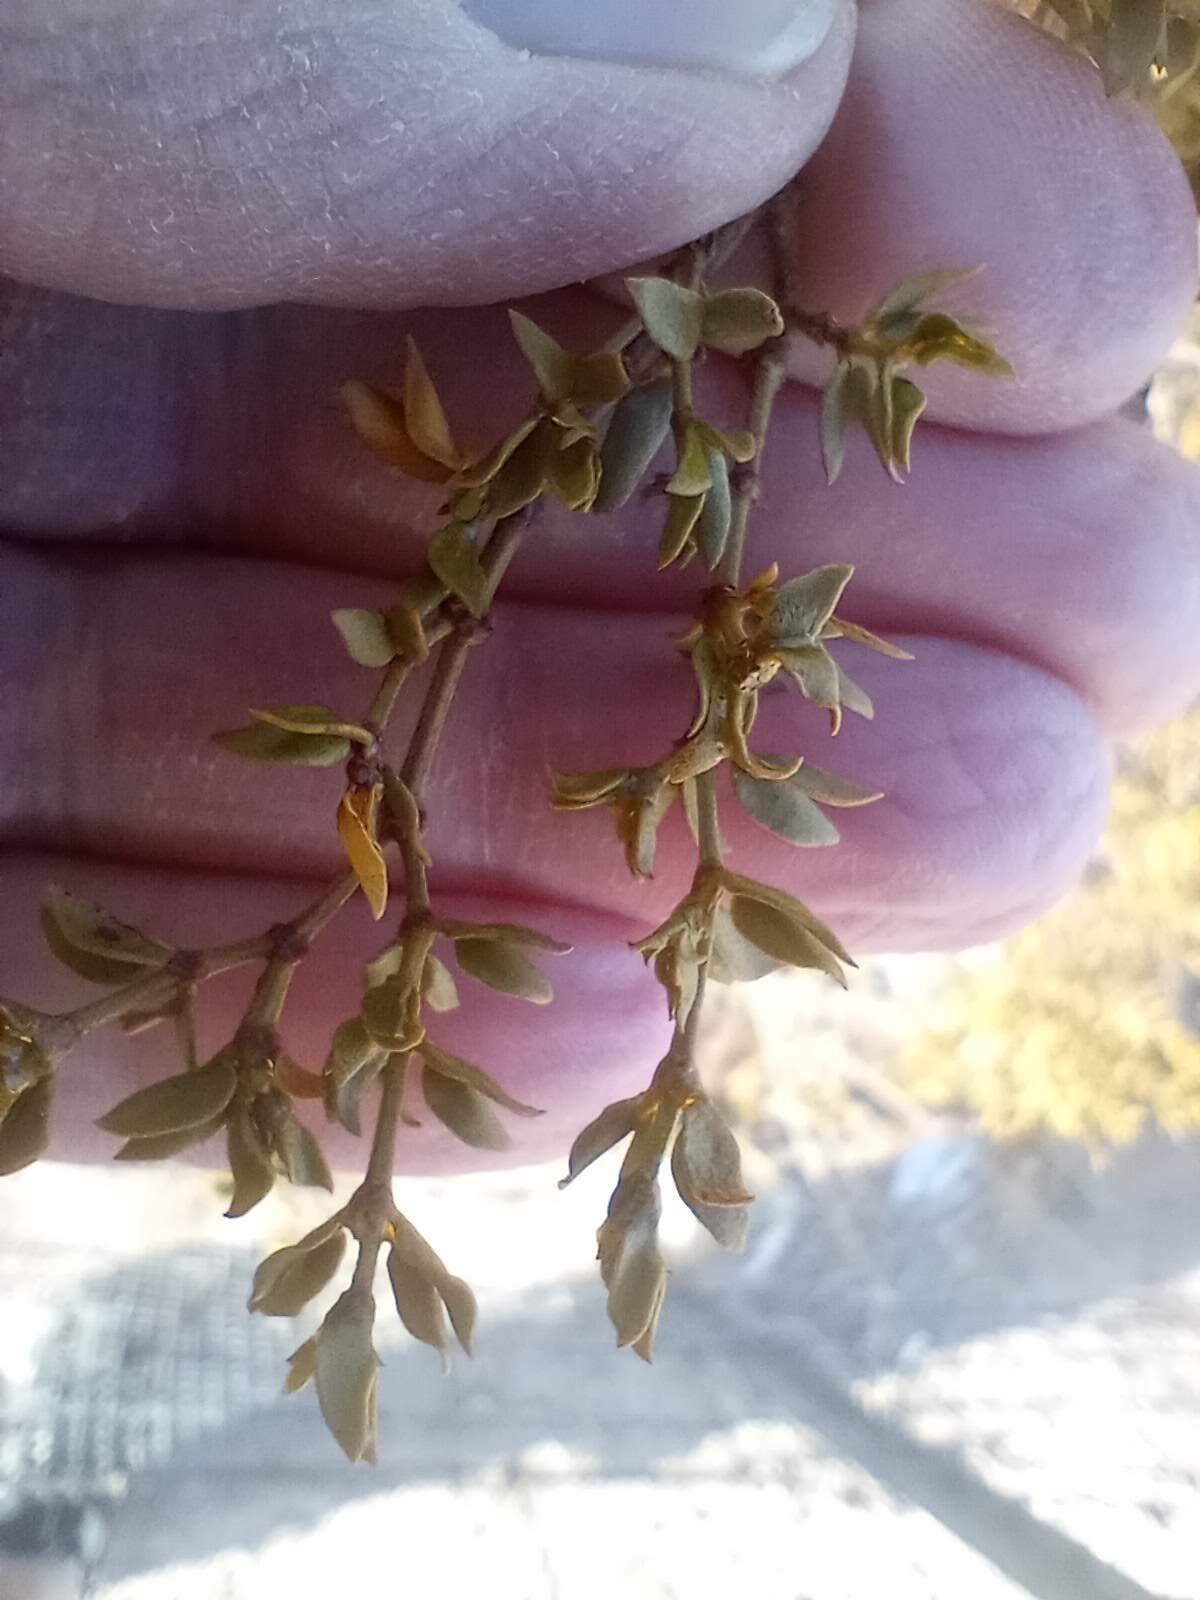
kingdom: Plantae
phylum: Tracheophyta
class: Magnoliopsida
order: Zygophyllales
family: Zygophyllaceae
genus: Larrea
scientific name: Larrea tridentata
